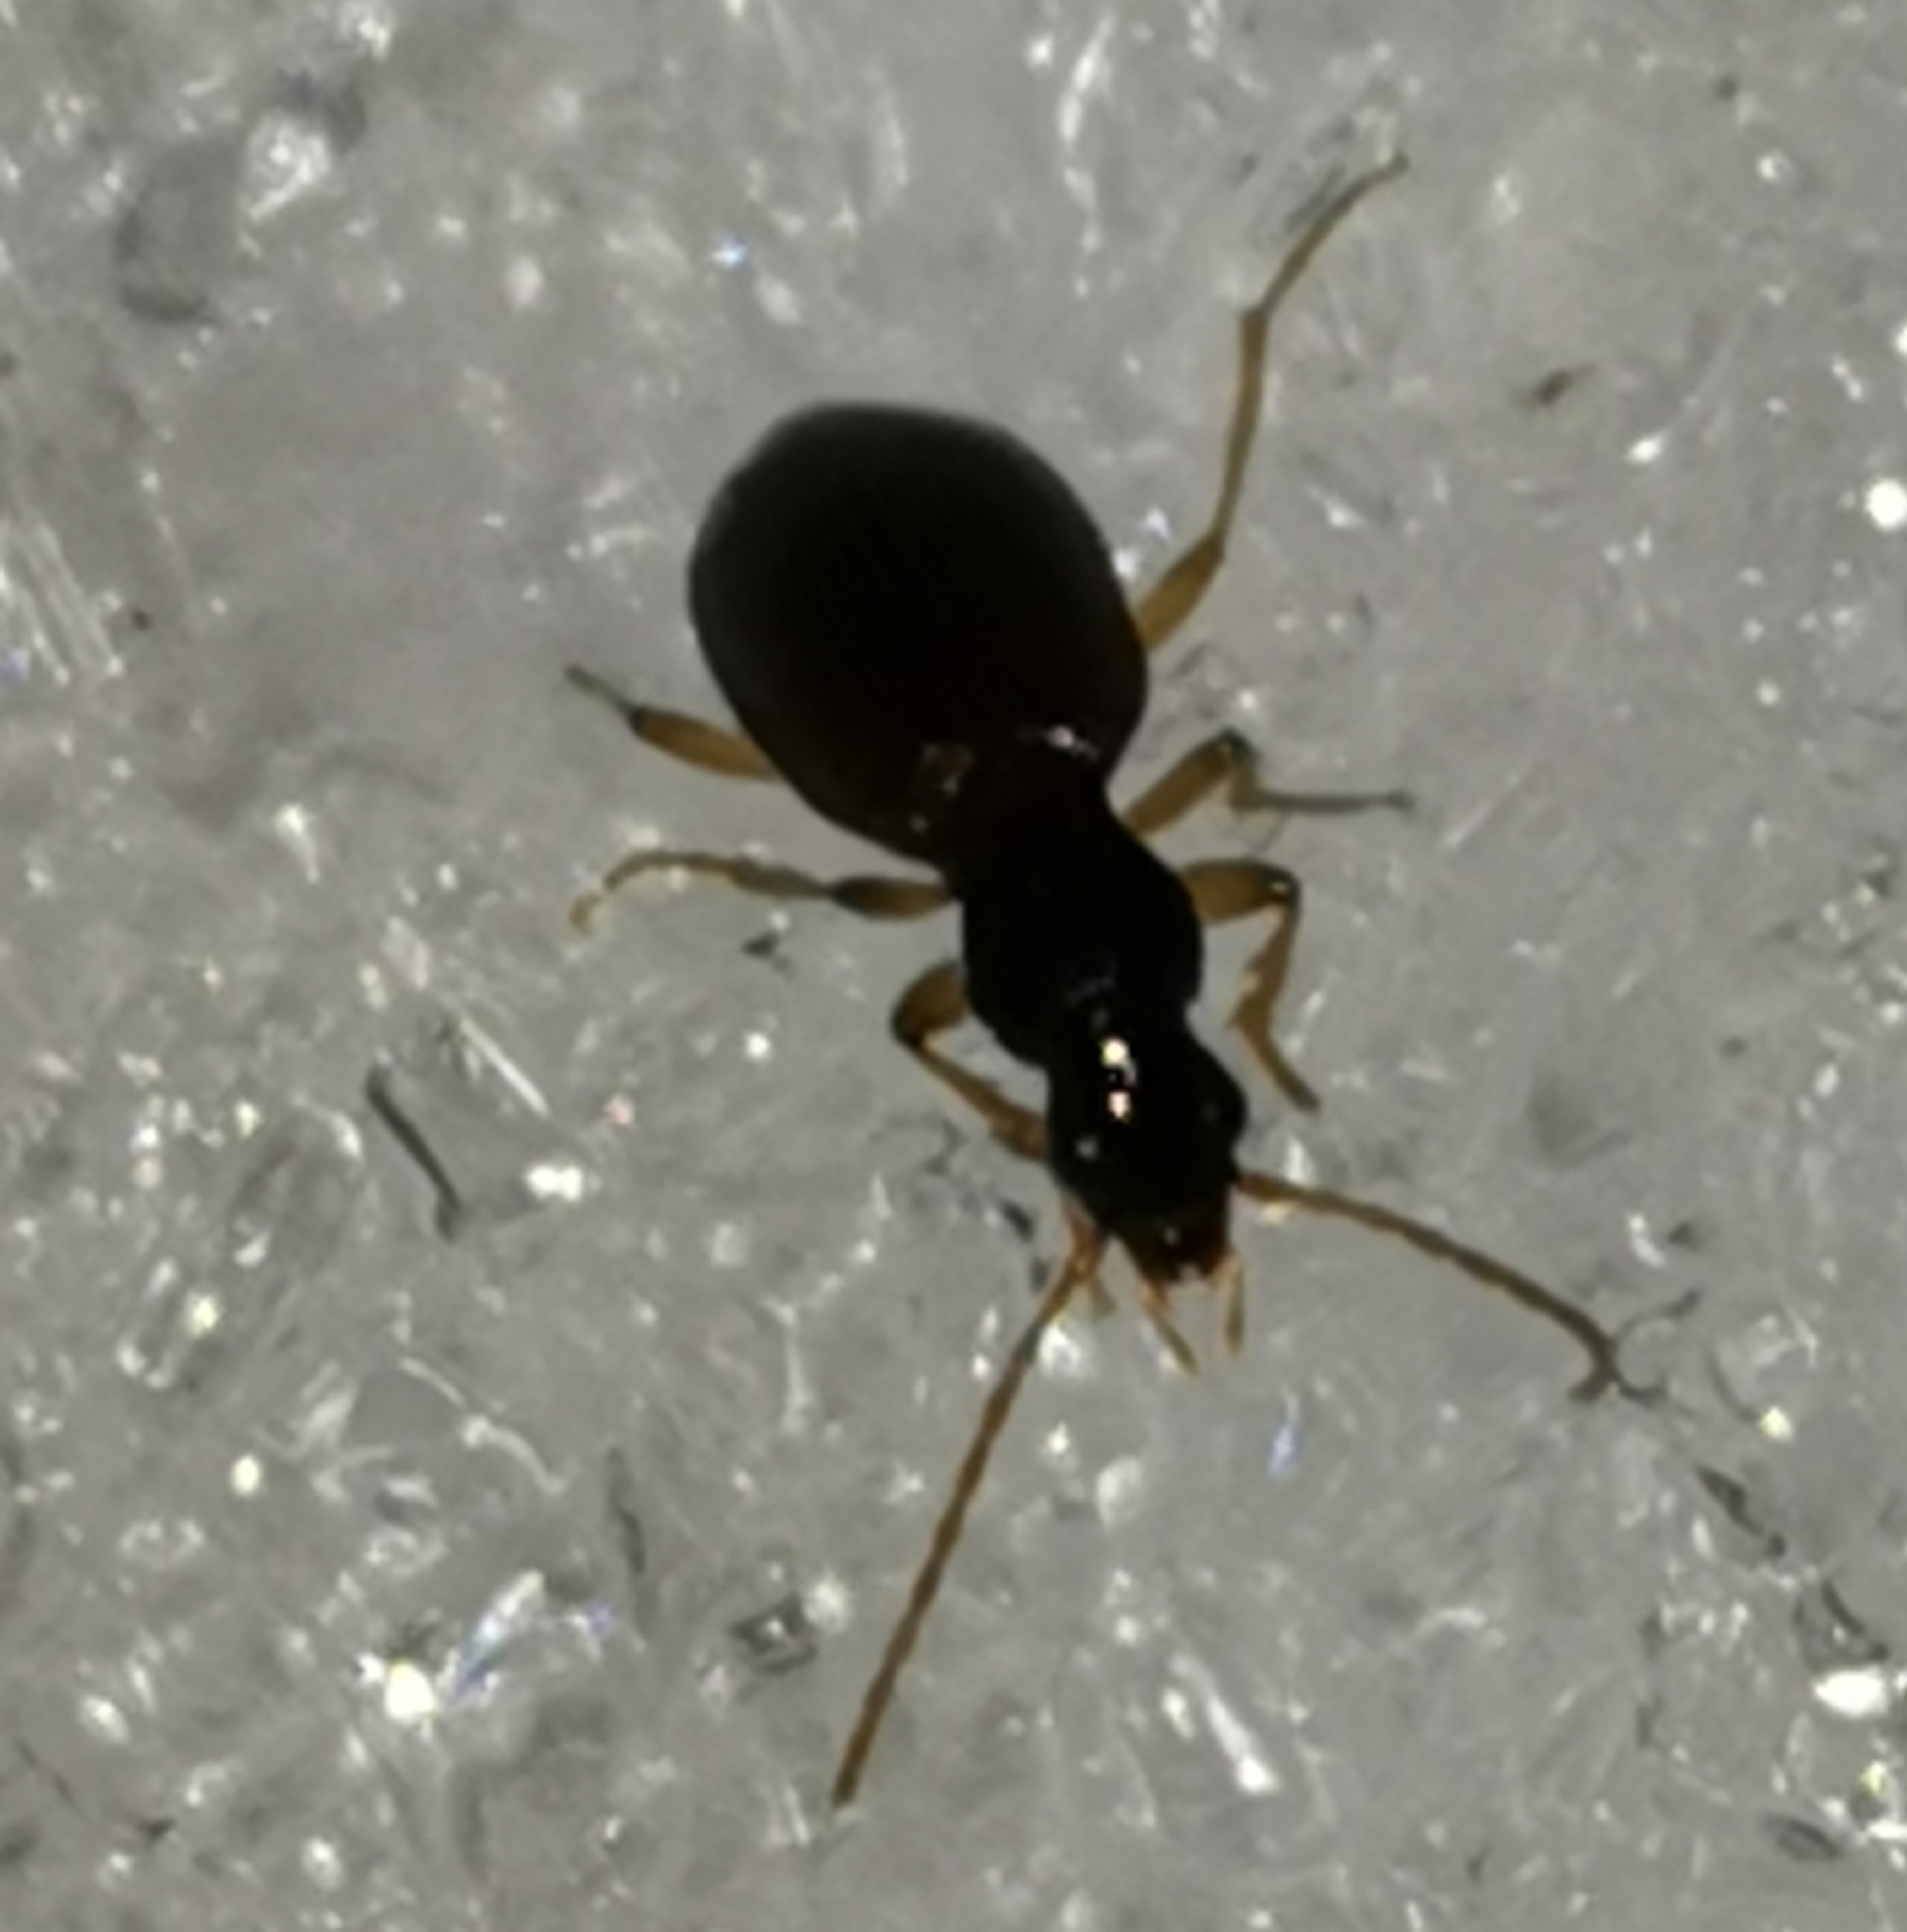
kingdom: Animalia
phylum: Arthropoda
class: Insecta
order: Coleoptera
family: Carabidae
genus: Oxypselaphus
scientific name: Oxypselaphus obscurus
